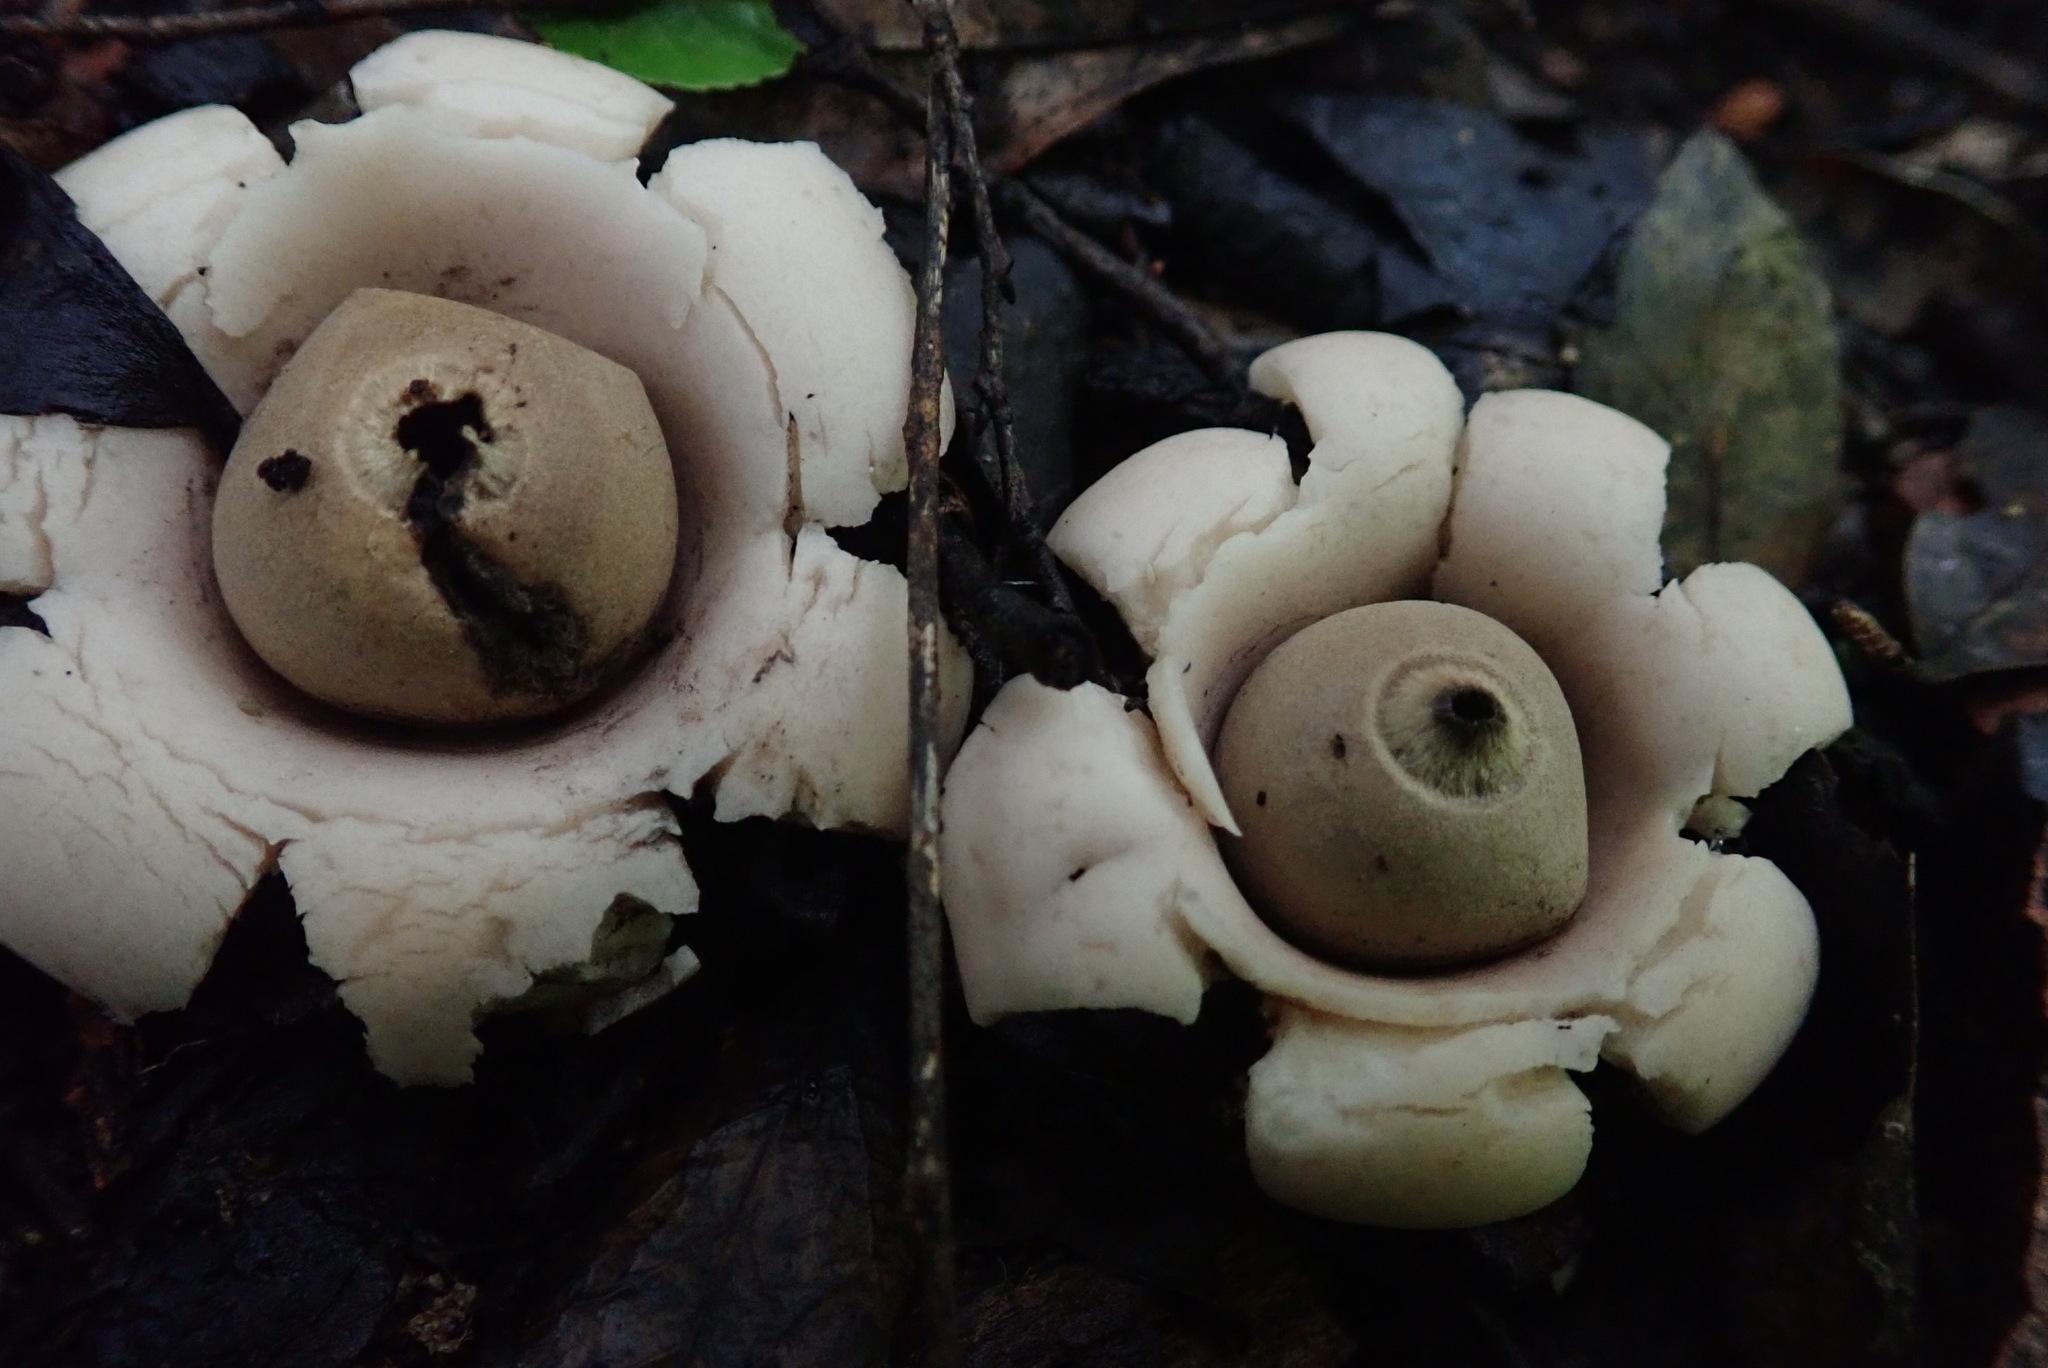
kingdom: Fungi
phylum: Basidiomycota
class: Agaricomycetes
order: Geastrales
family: Geastraceae
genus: Geastrum
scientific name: Geastrum saccatum
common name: Rounded earthstar
